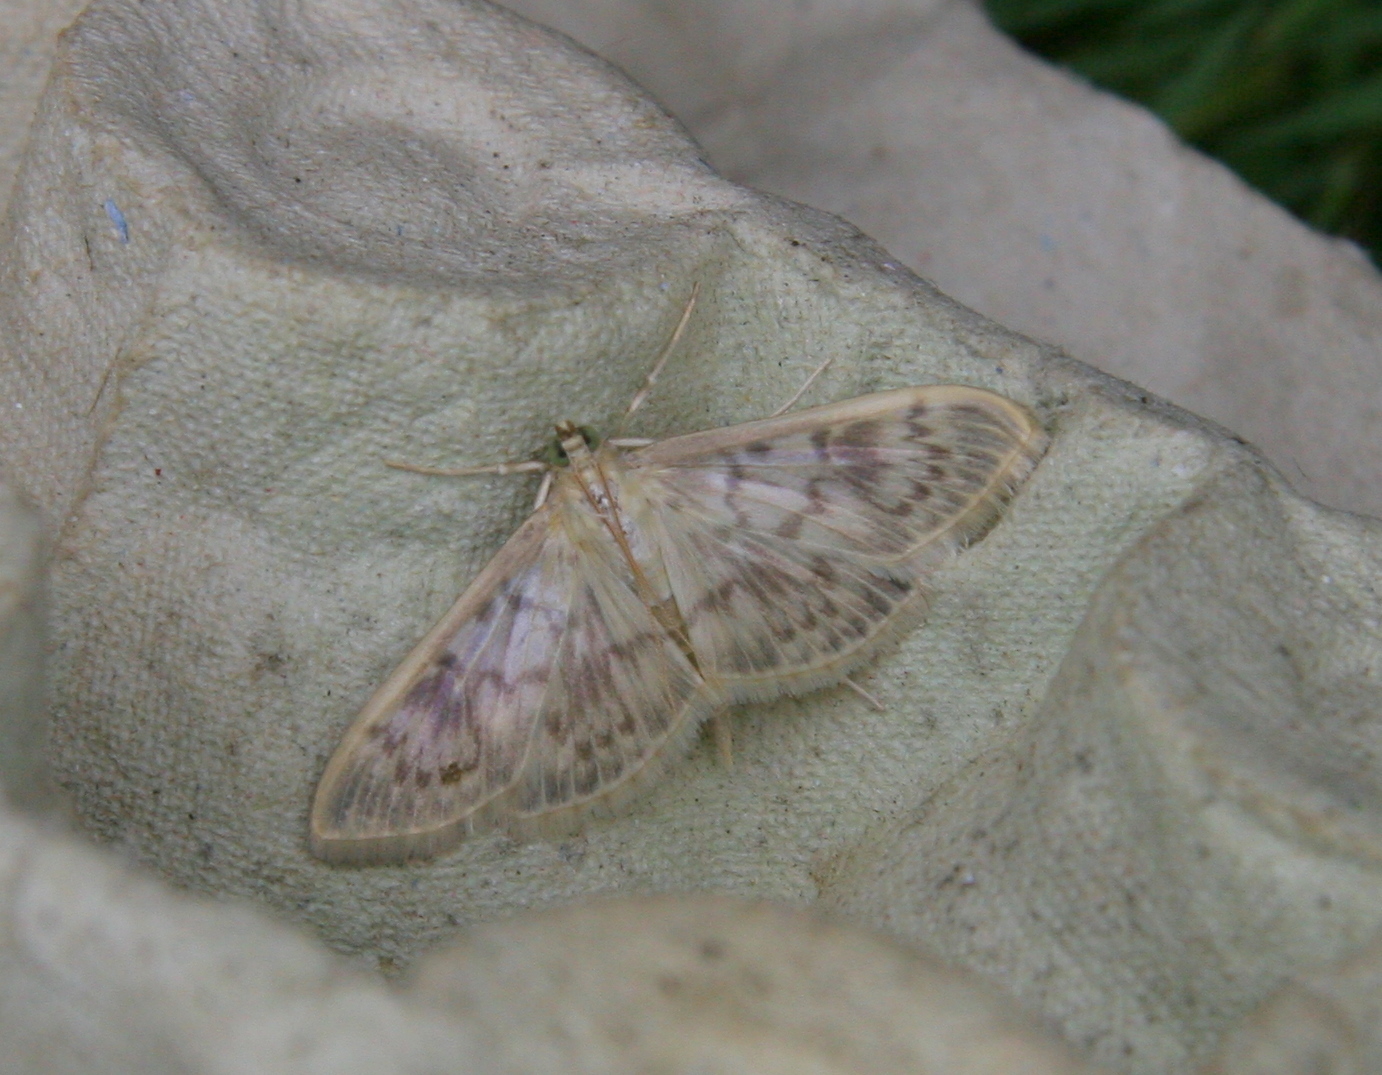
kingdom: Animalia
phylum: Arthropoda
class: Insecta
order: Lepidoptera
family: Crambidae
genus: Patania
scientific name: Patania ruralis
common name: Mother of pearl
